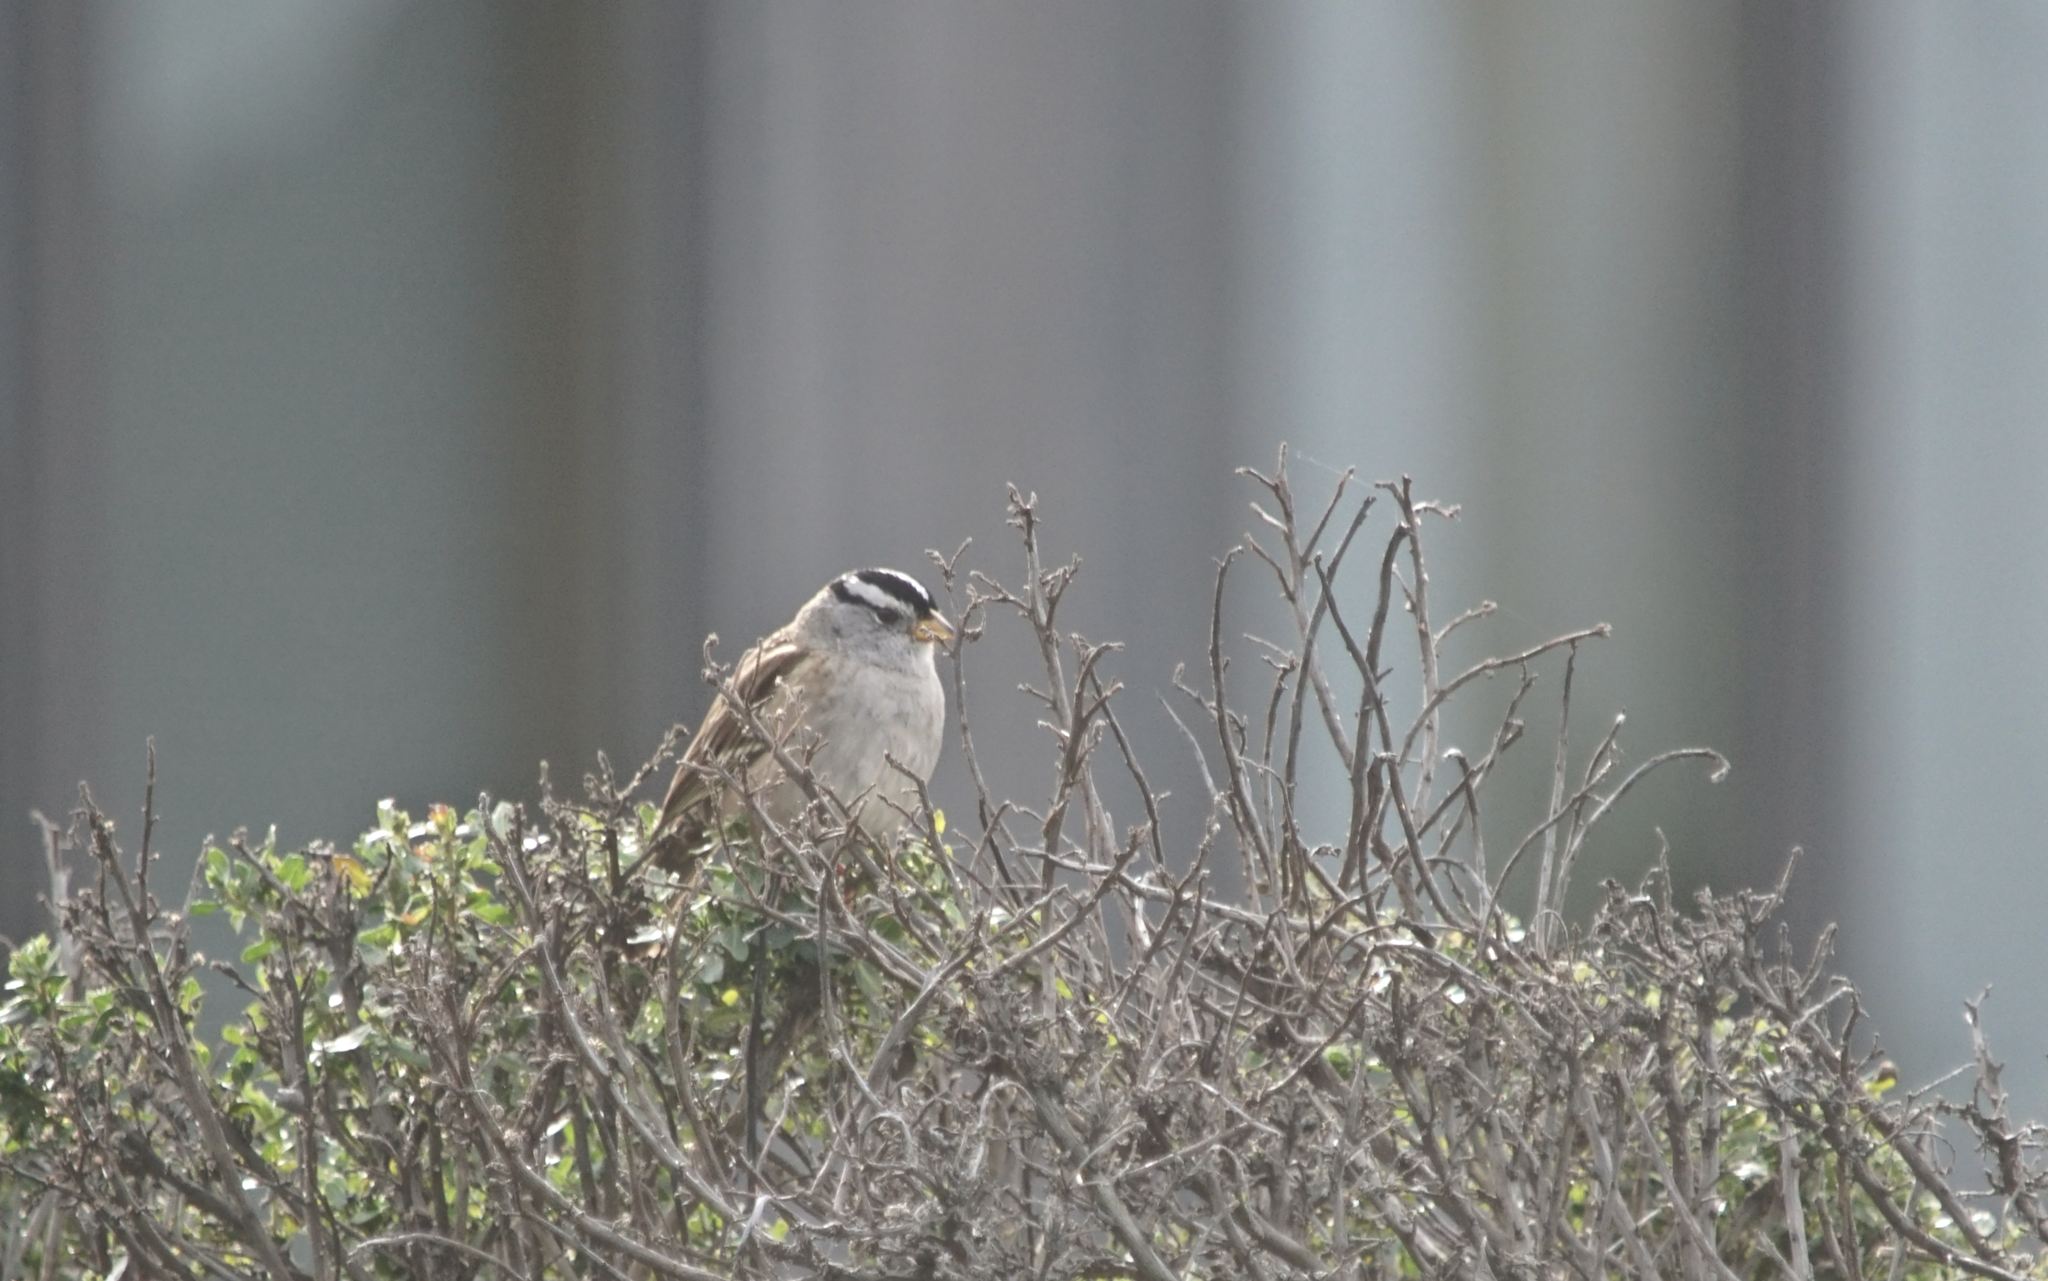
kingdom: Animalia
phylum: Chordata
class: Aves
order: Passeriformes
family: Passerellidae
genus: Zonotrichia
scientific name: Zonotrichia leucophrys
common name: White-crowned sparrow
